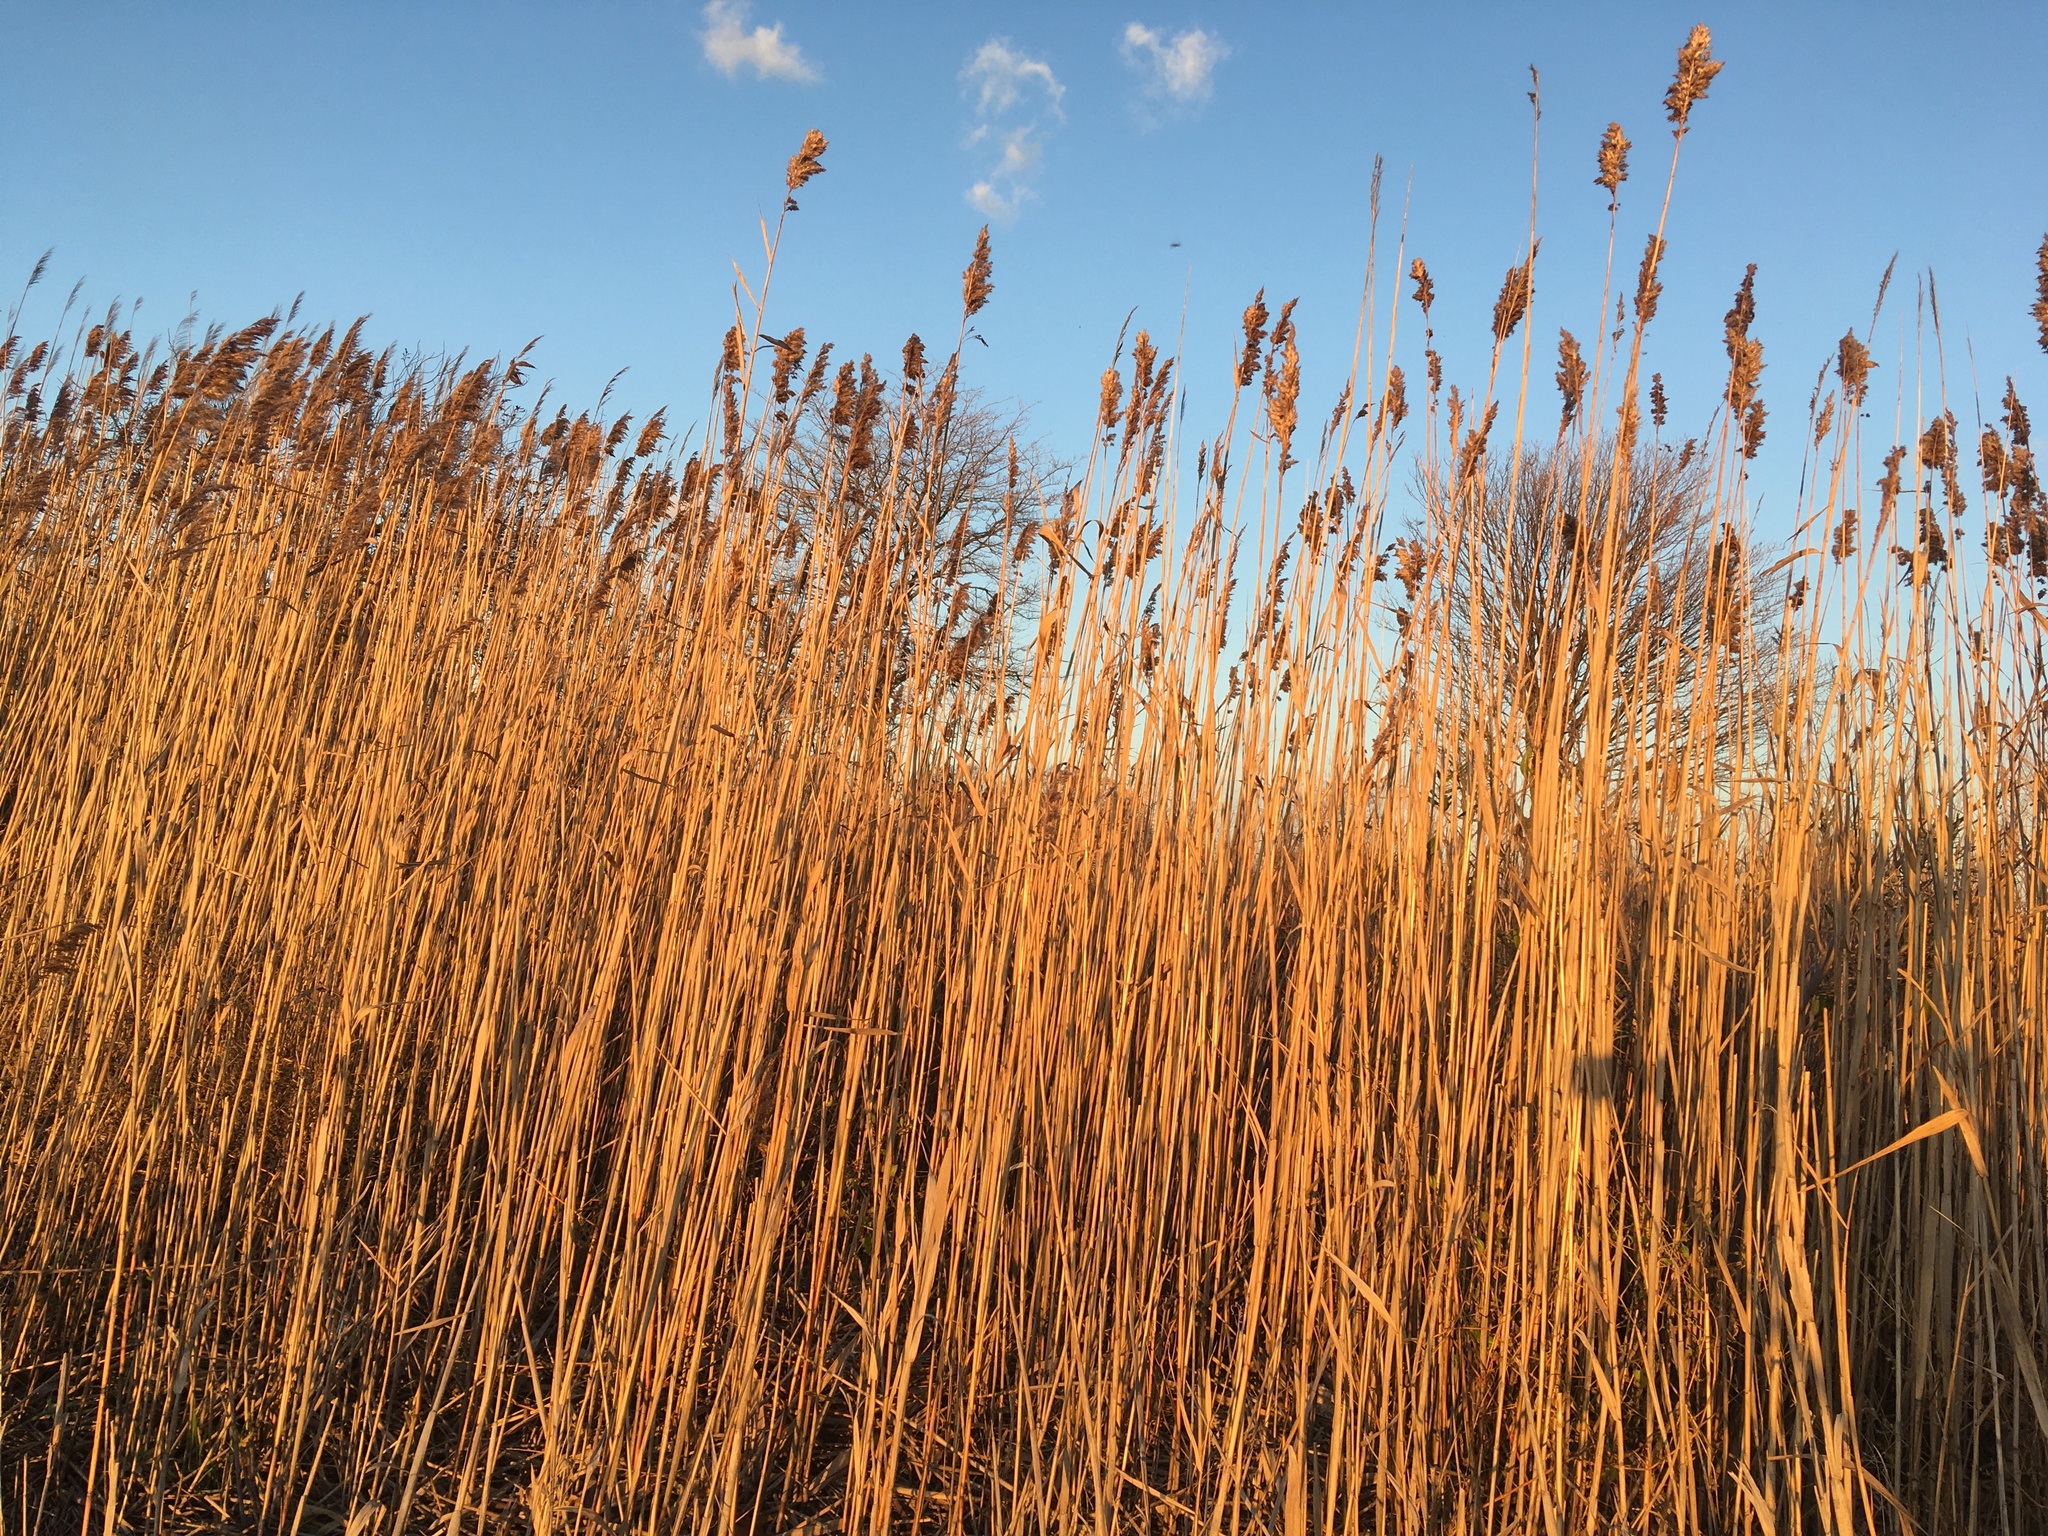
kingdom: Plantae
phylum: Tracheophyta
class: Liliopsida
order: Poales
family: Poaceae
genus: Phragmites
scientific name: Phragmites australis
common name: Common reed
